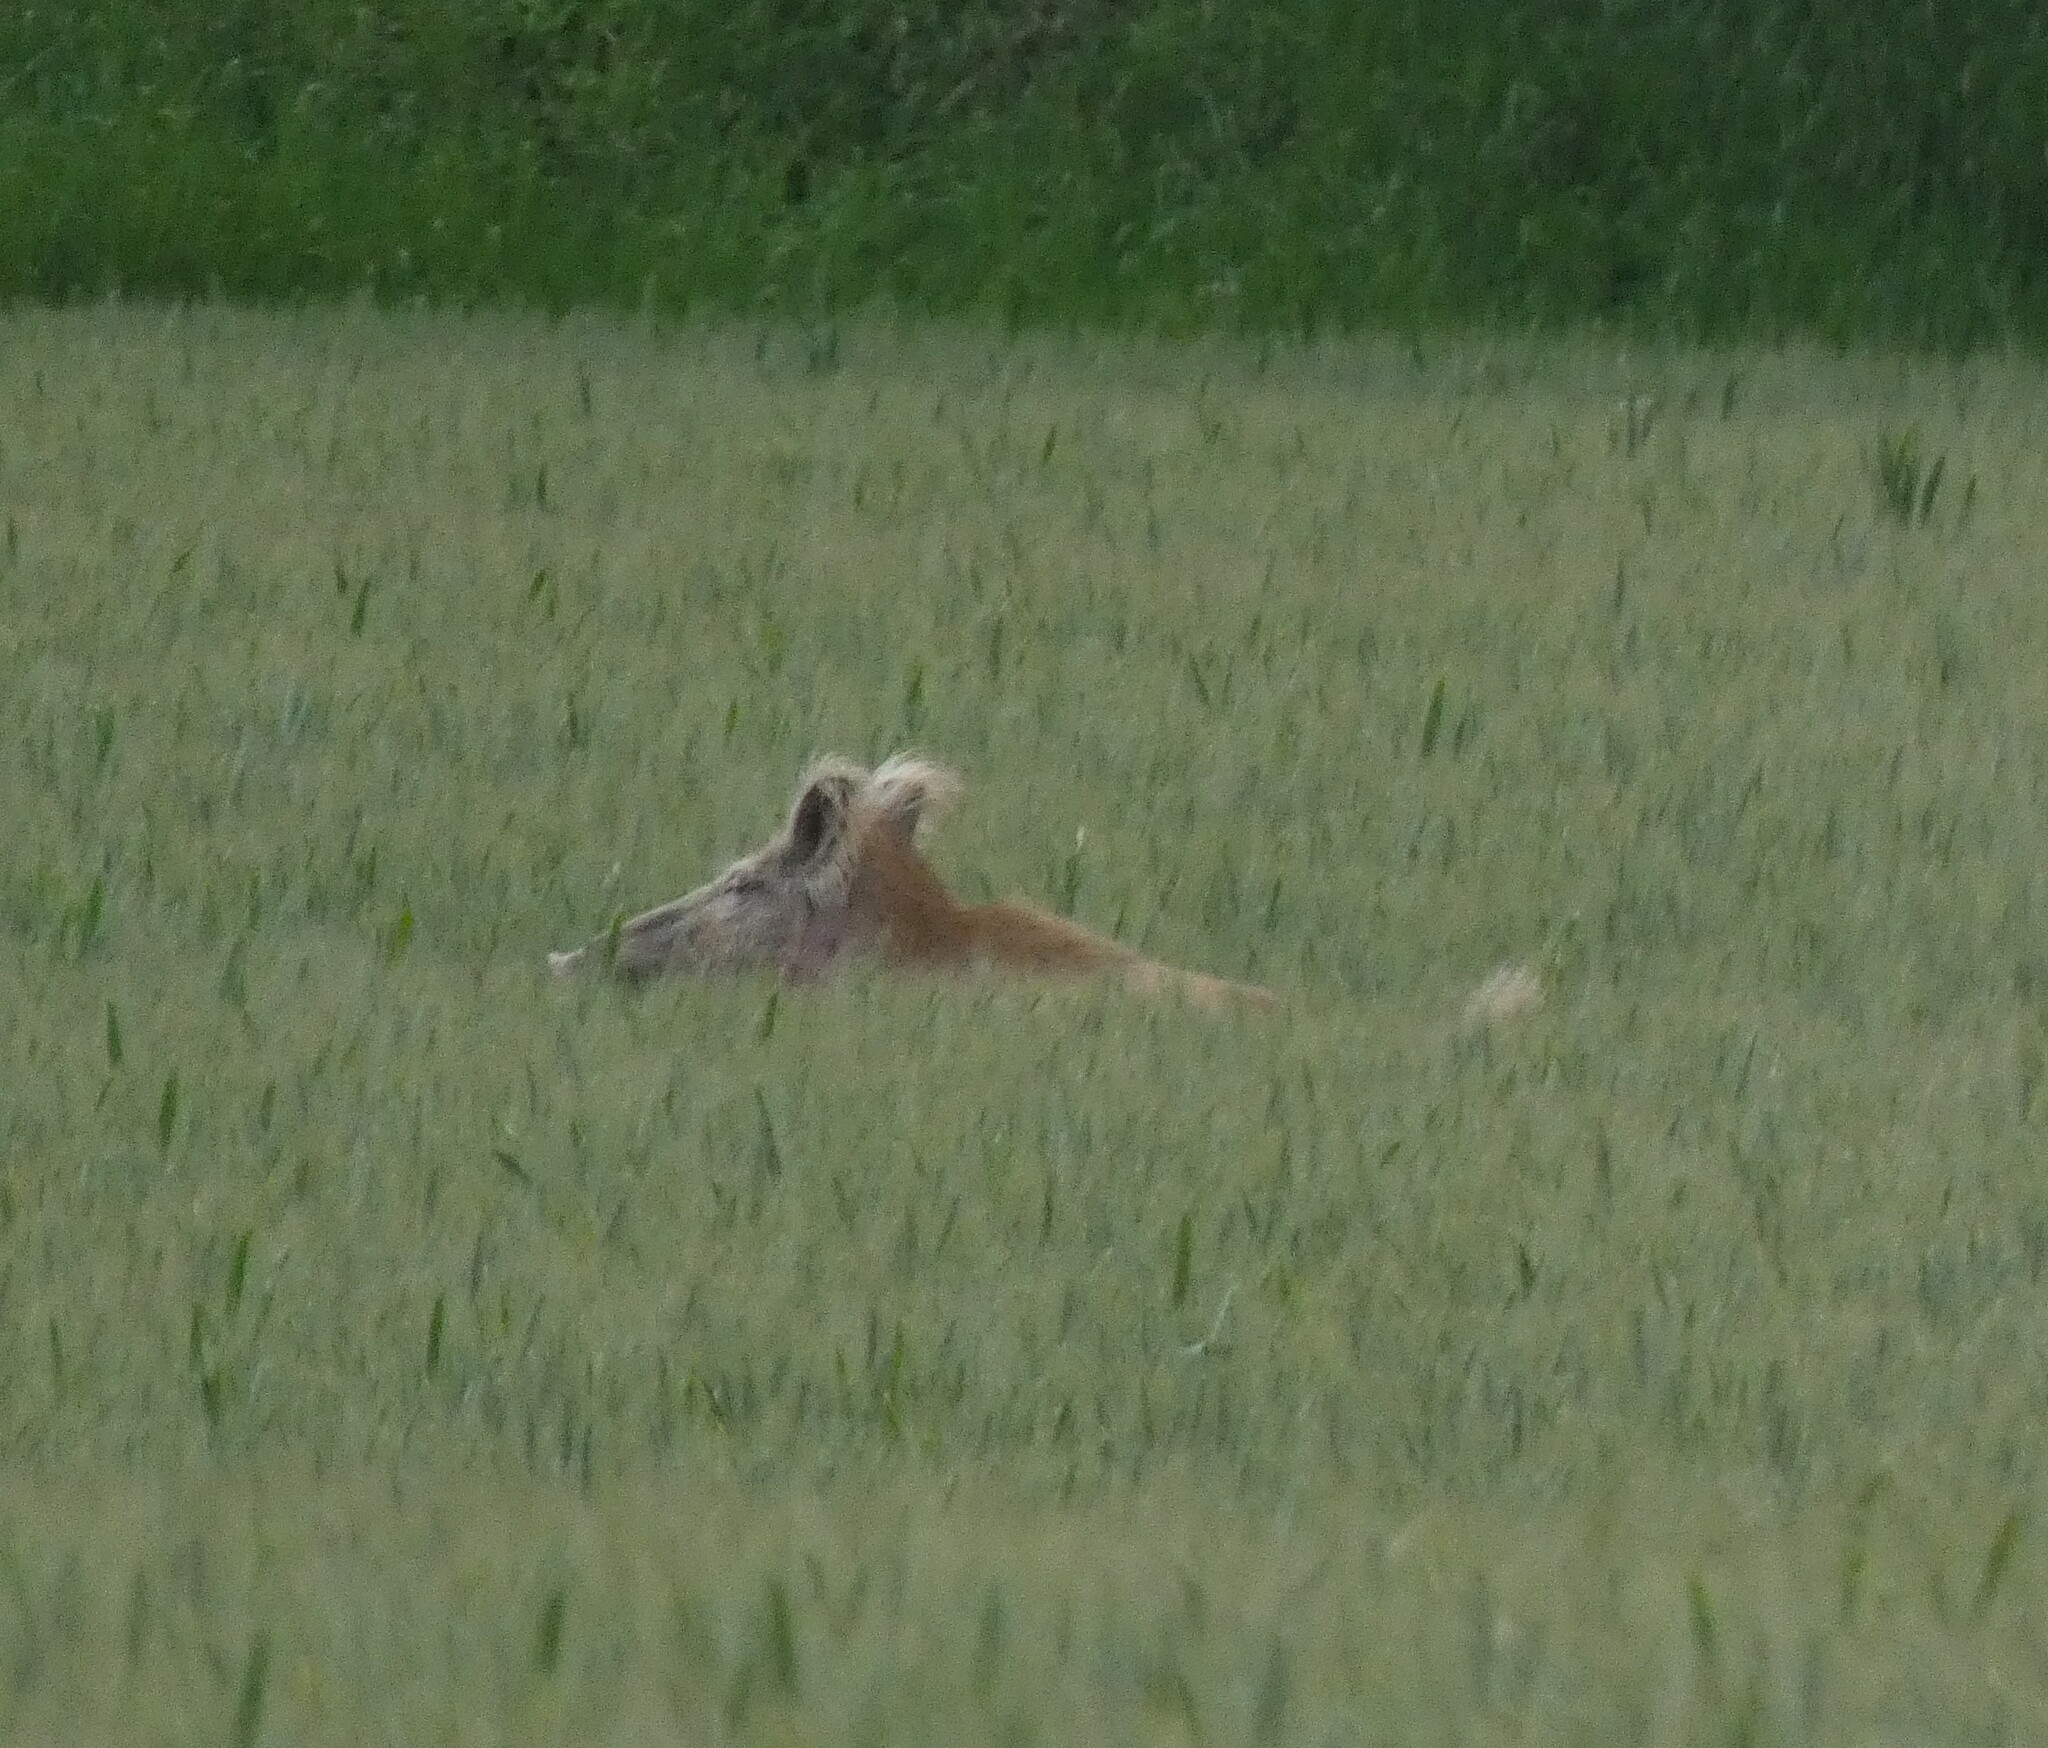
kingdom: Animalia
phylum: Chordata
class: Mammalia
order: Artiodactyla
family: Suidae
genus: Sus
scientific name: Sus scrofa
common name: Wild boar
